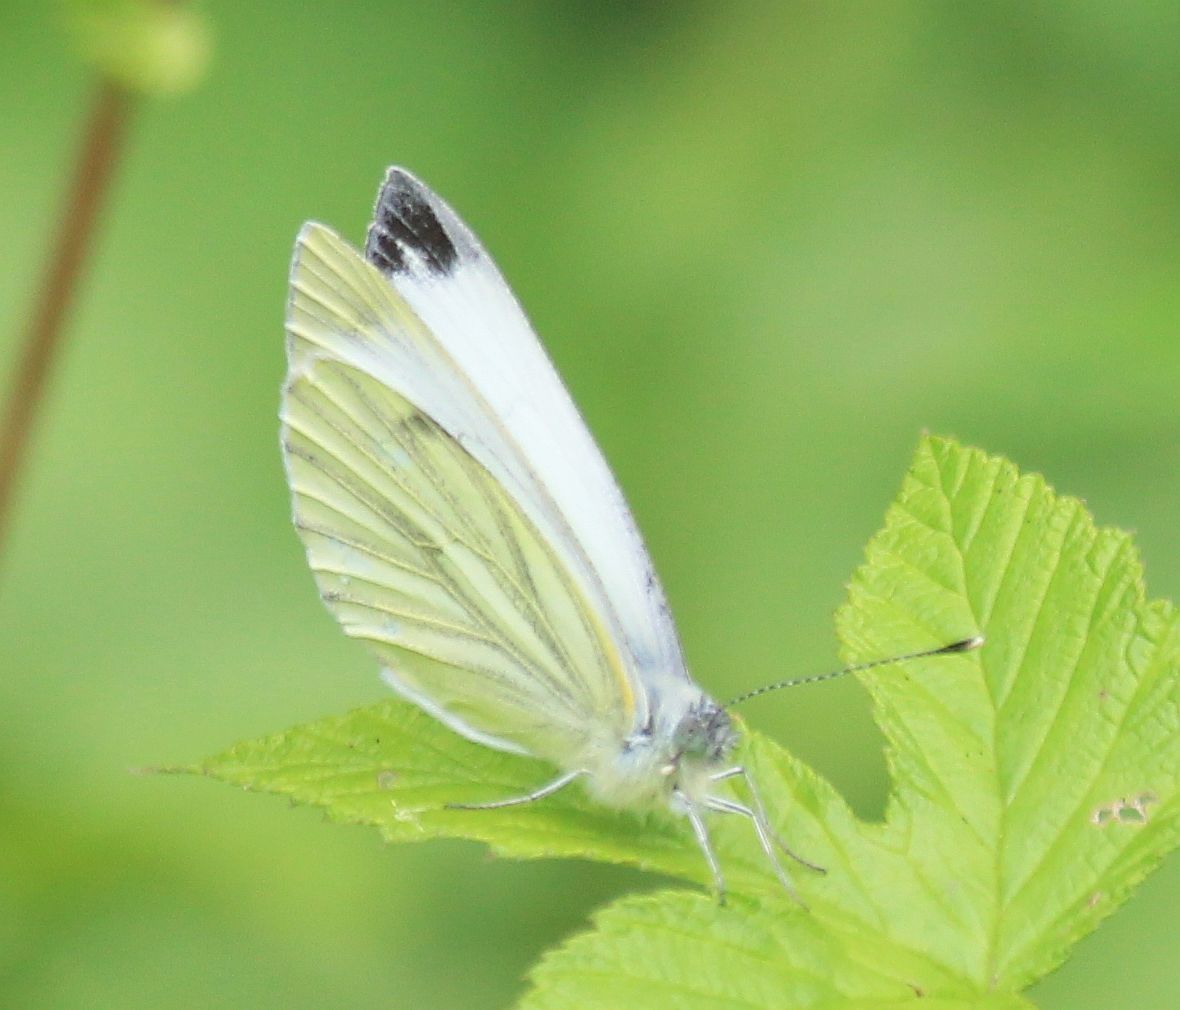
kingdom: Animalia
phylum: Arthropoda
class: Insecta
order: Lepidoptera
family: Pieridae
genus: Pieris
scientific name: Pieris napi
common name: Green-veined white
